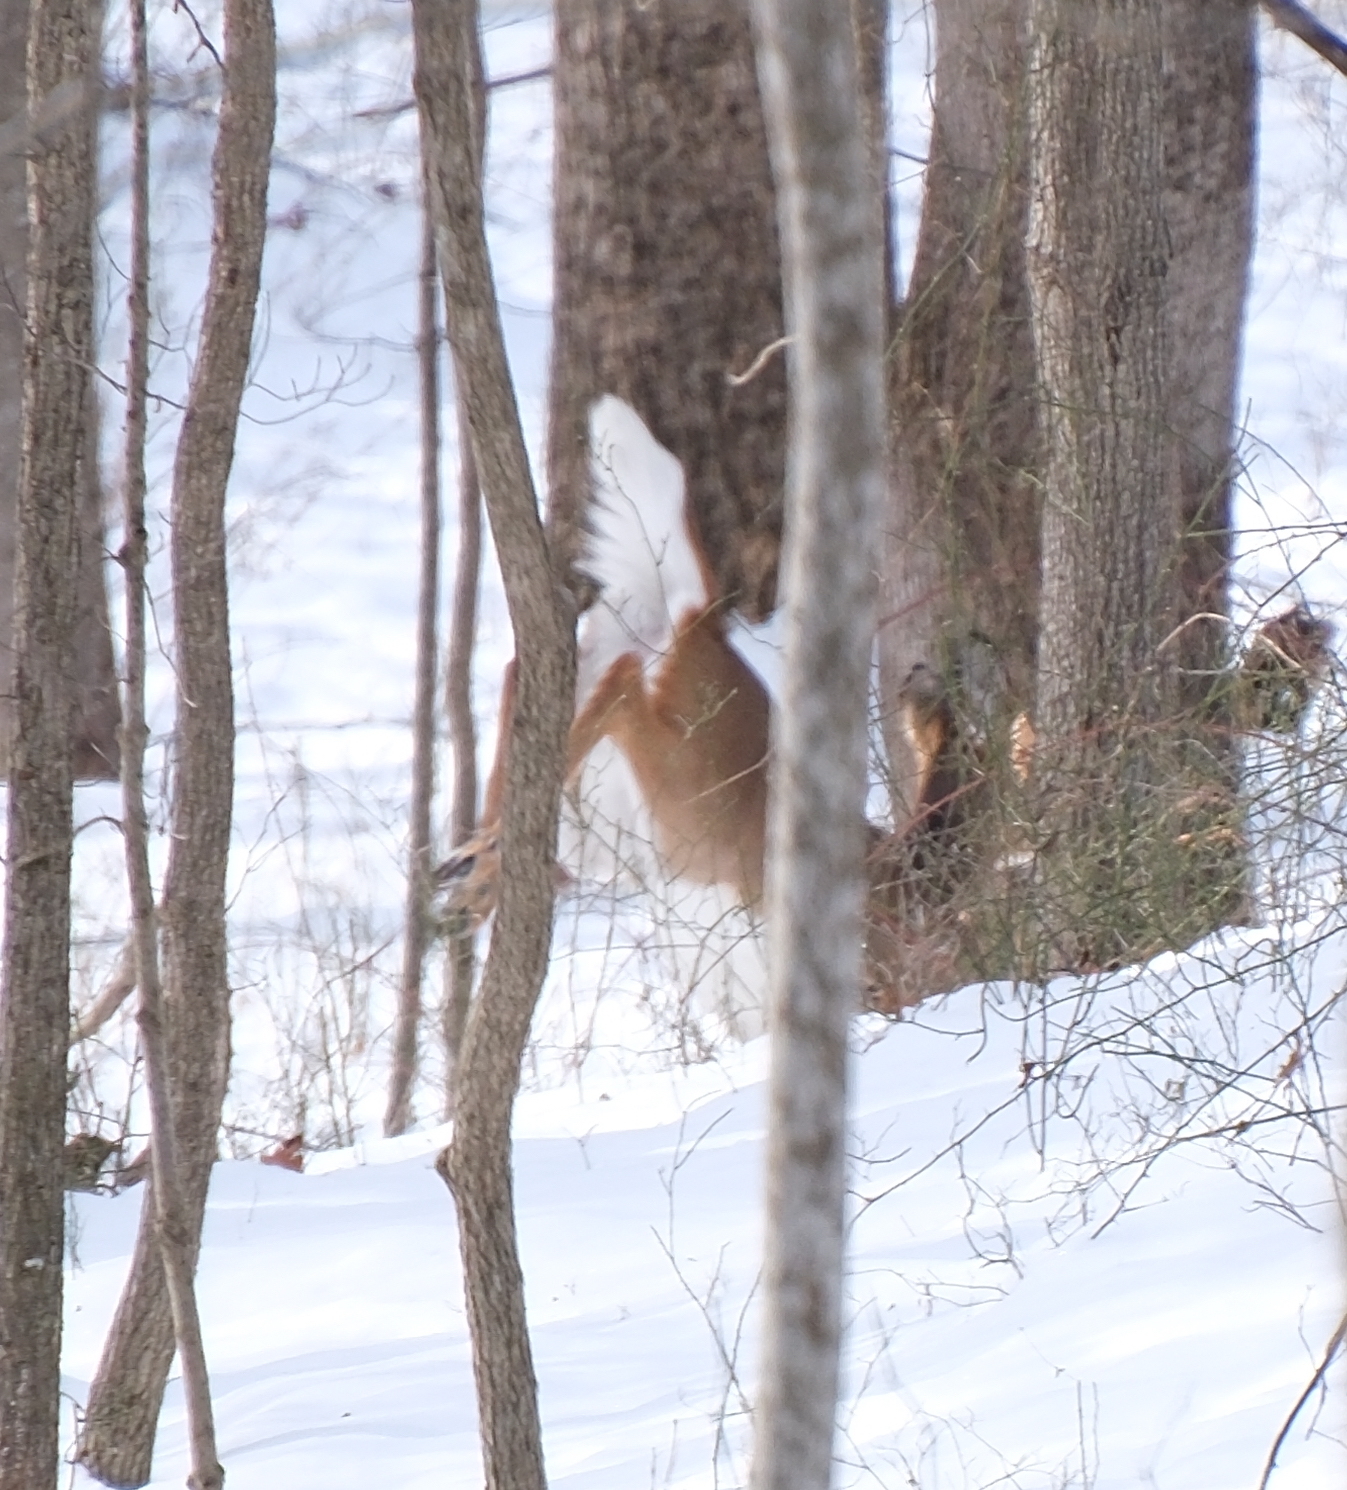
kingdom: Animalia
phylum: Chordata
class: Mammalia
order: Artiodactyla
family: Cervidae
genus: Odocoileus
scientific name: Odocoileus virginianus
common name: White-tailed deer
